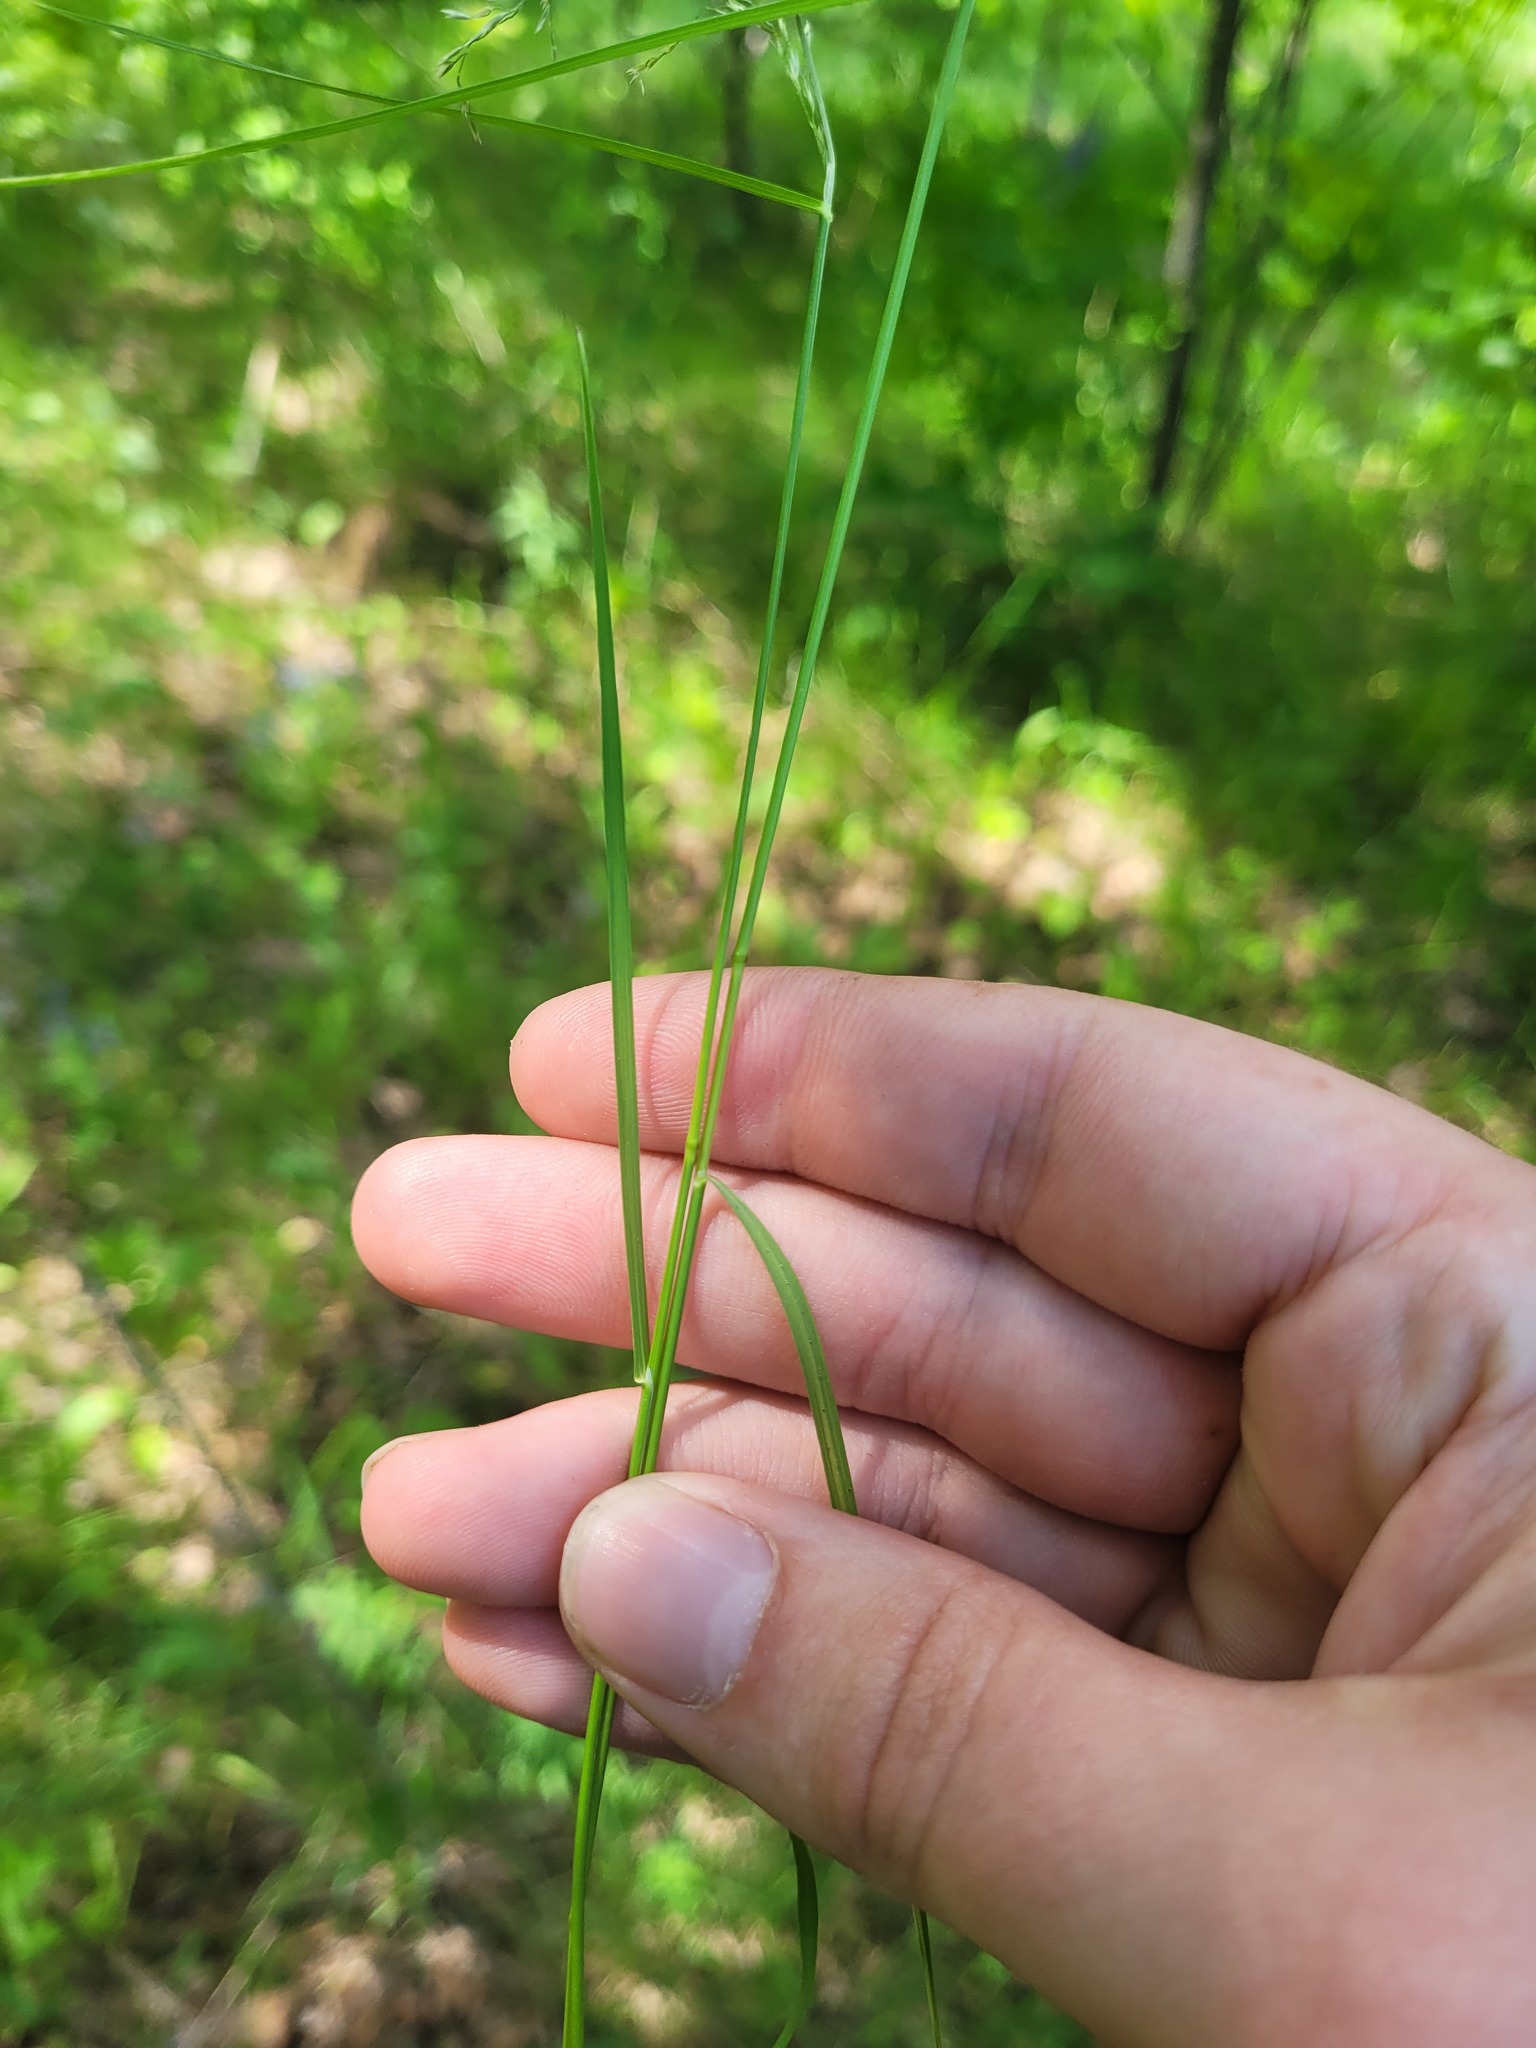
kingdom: Plantae
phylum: Tracheophyta
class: Liliopsida
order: Poales
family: Poaceae
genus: Poa
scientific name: Poa palustris
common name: Swamp meadow-grass
